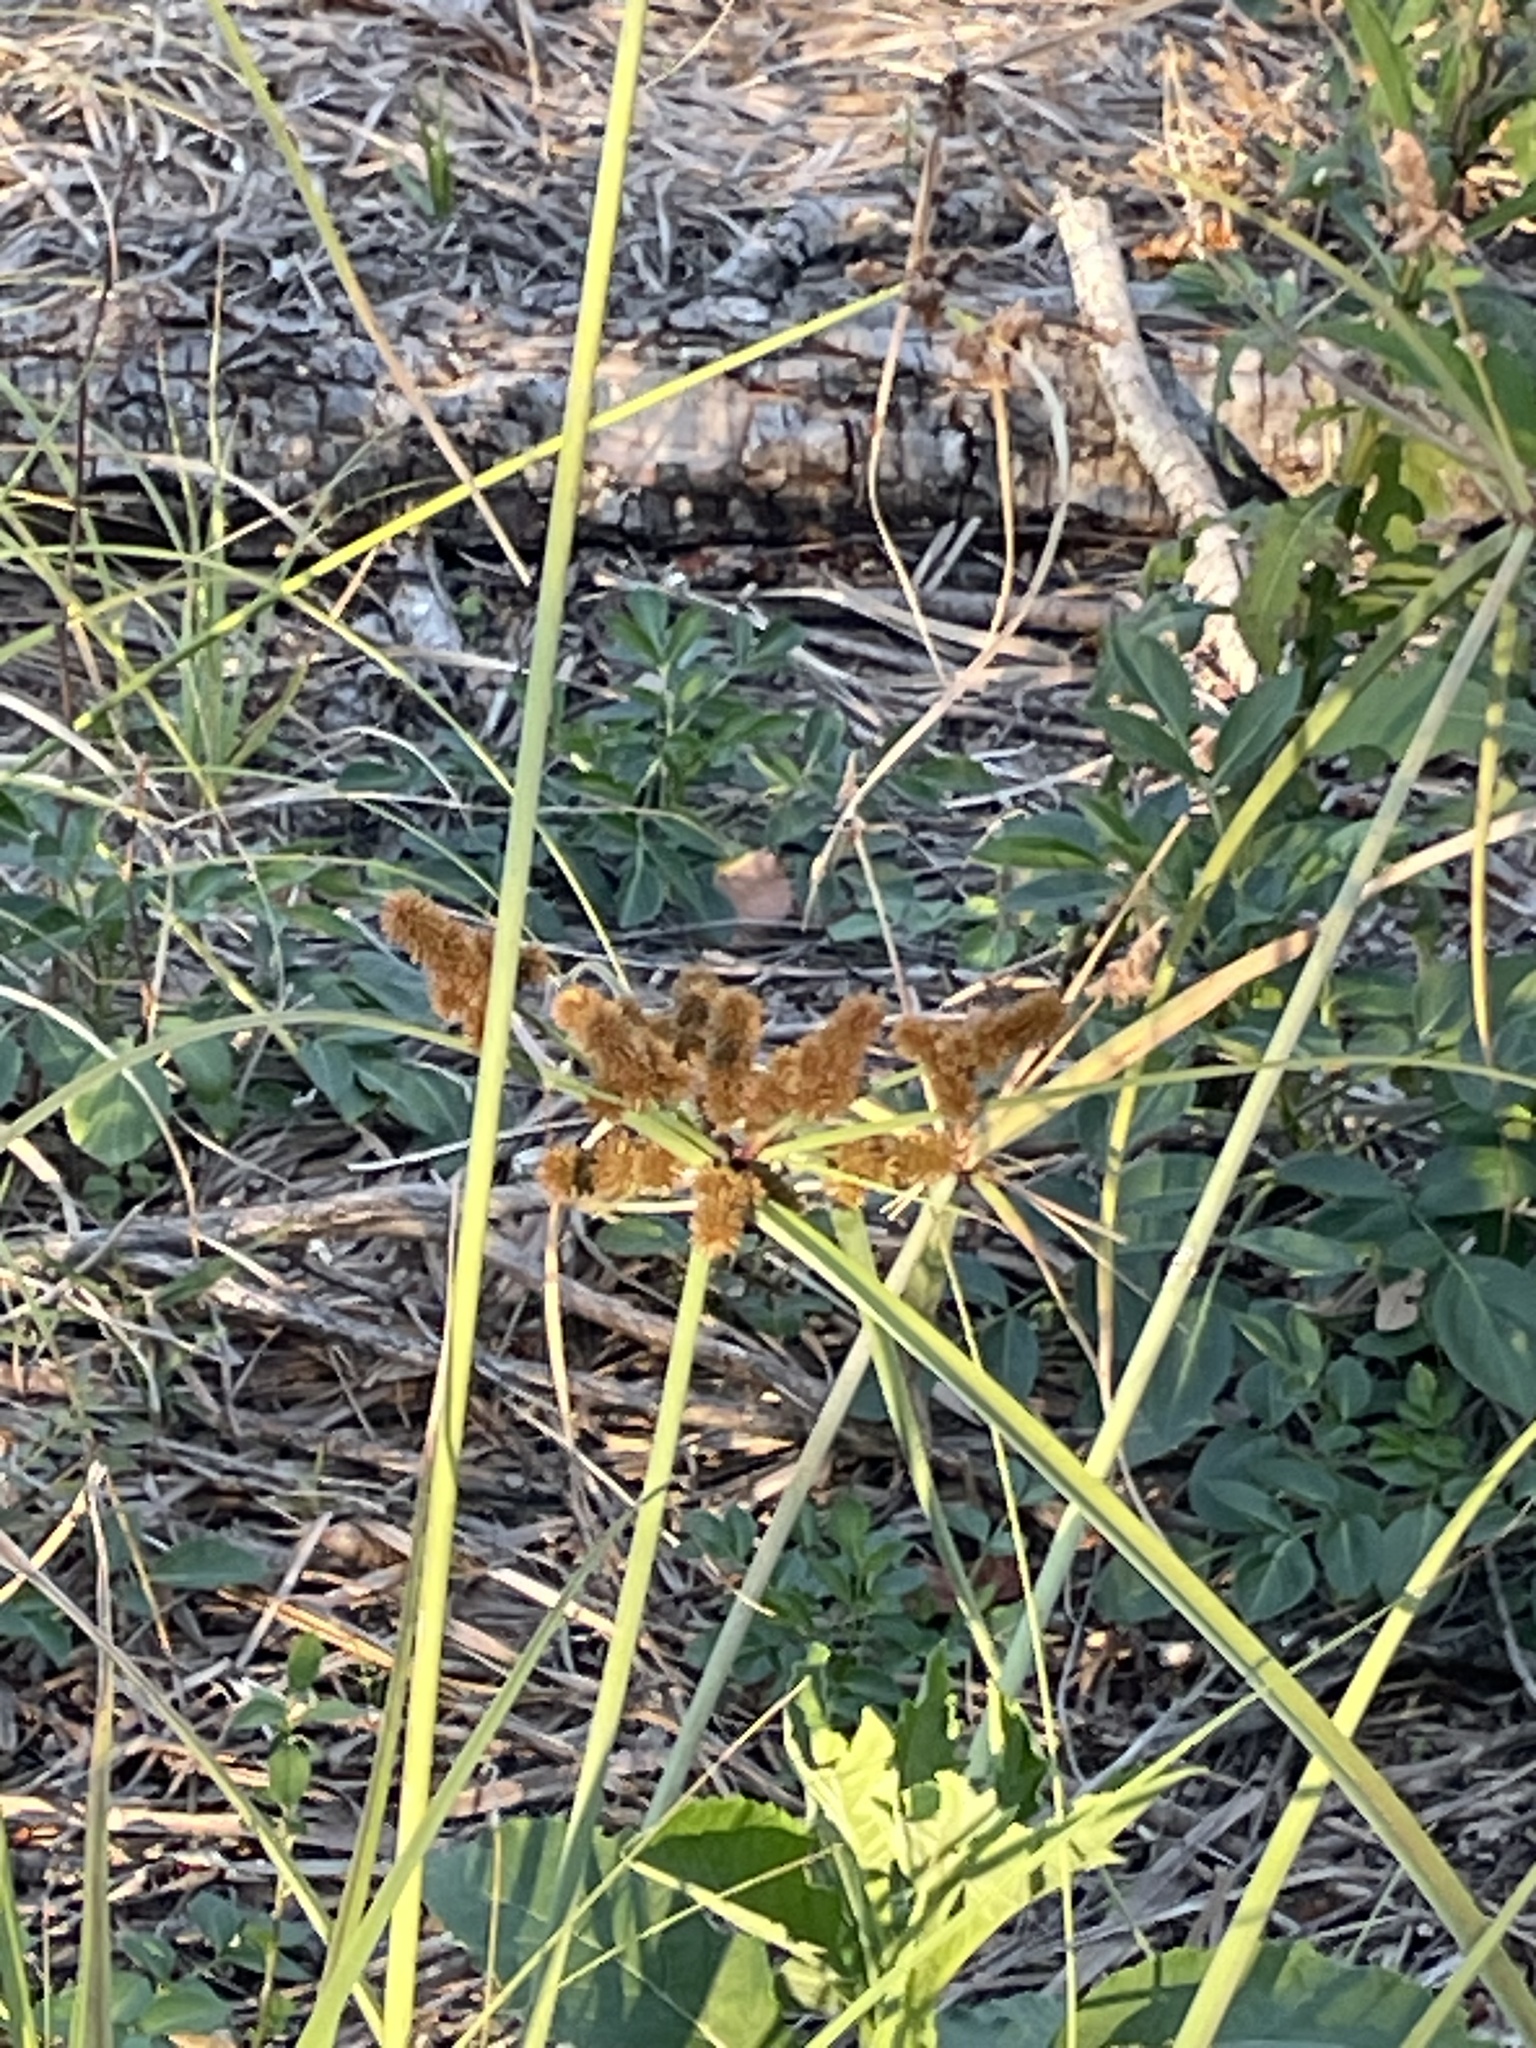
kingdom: Plantae
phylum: Tracheophyta
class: Liliopsida
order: Poales
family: Cyperaceae
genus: Cyperus
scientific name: Cyperus ligularis
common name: Swamp flat sedge
